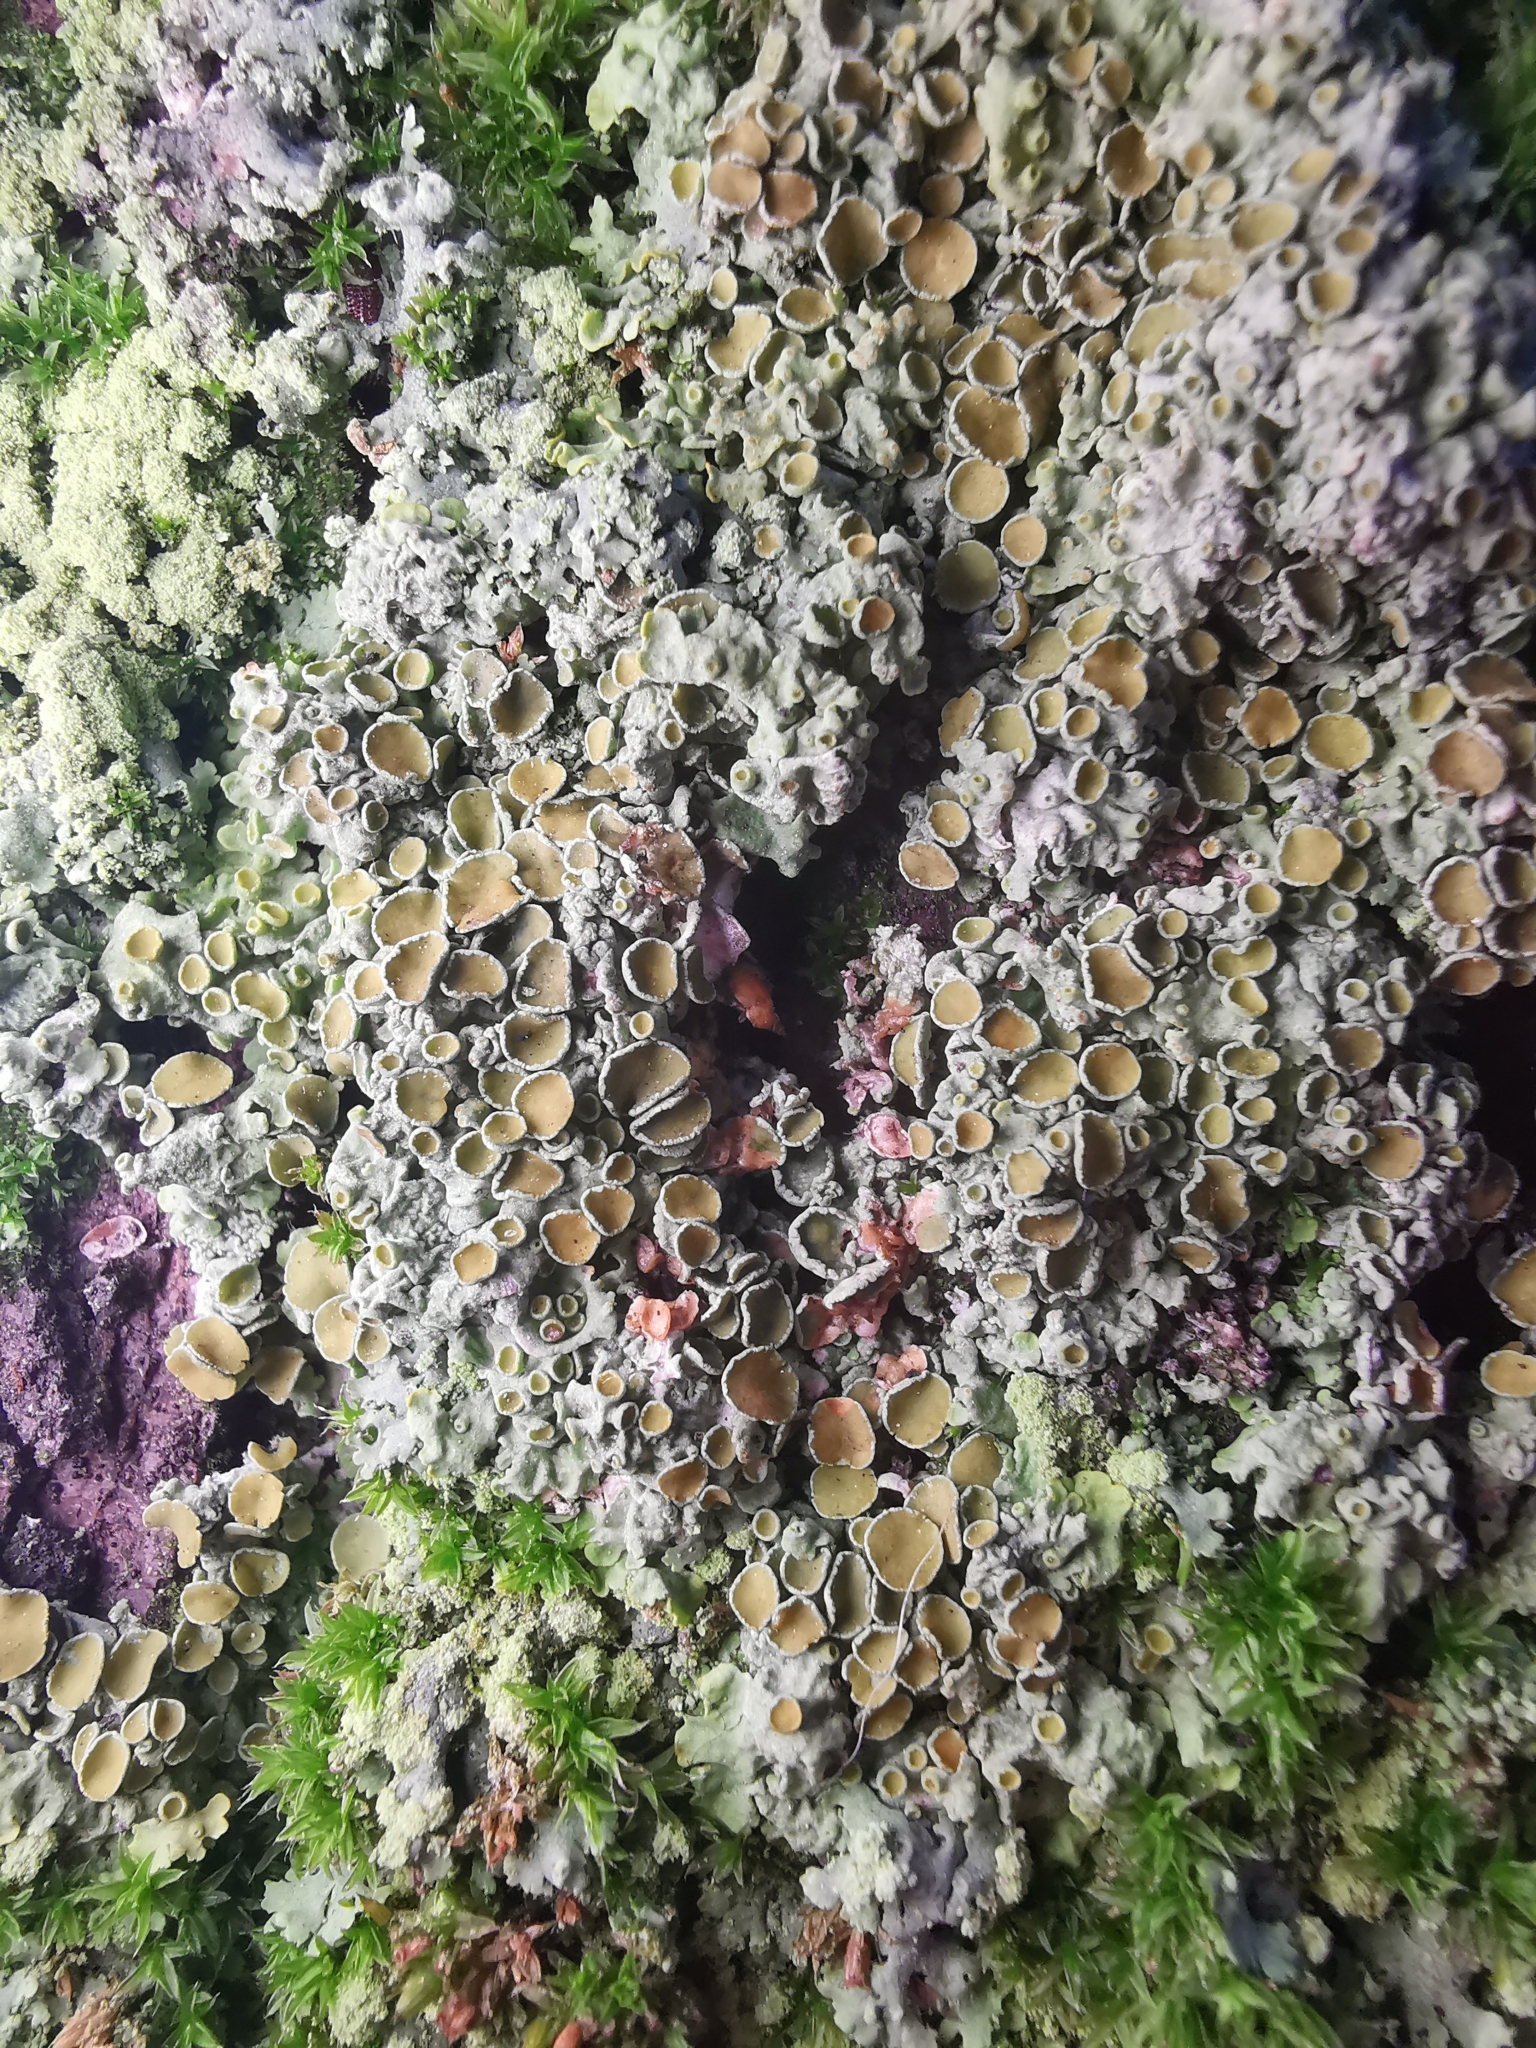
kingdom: Fungi
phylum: Ascomycota
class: Lecanoromycetes
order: Teloschistales
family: Teloschistaceae
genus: Xanthoria
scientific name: Xanthoria parietina
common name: Common orange lichen
